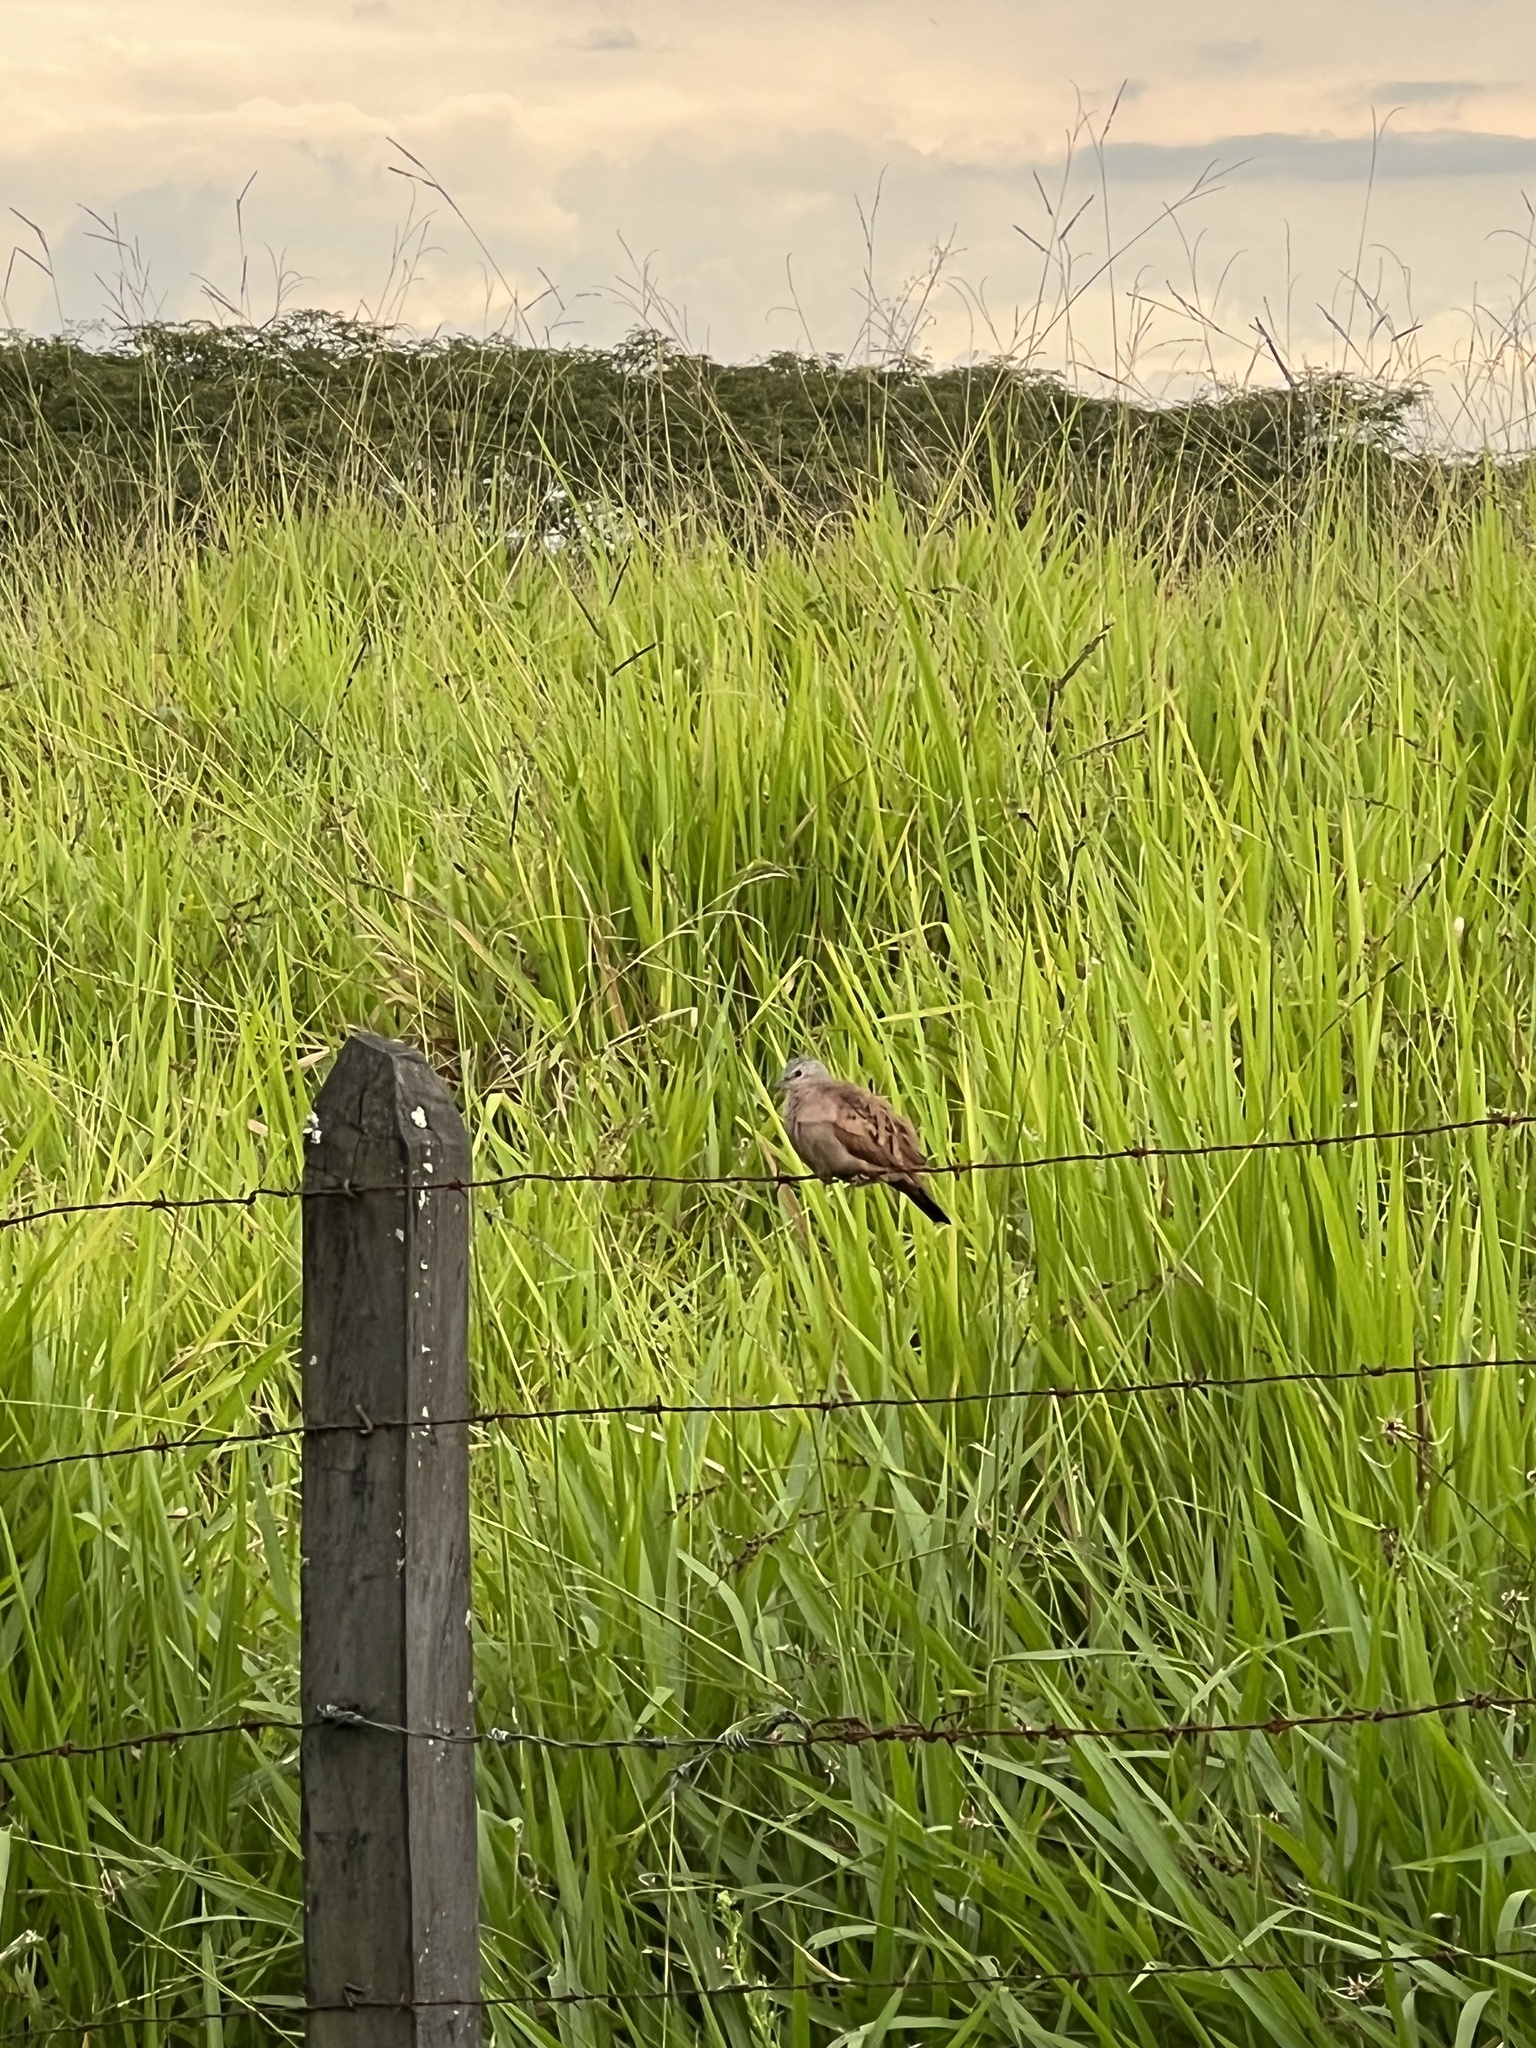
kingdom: Animalia
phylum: Chordata
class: Aves
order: Columbiformes
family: Columbidae
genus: Columbina
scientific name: Columbina talpacoti
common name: Ruddy ground dove
